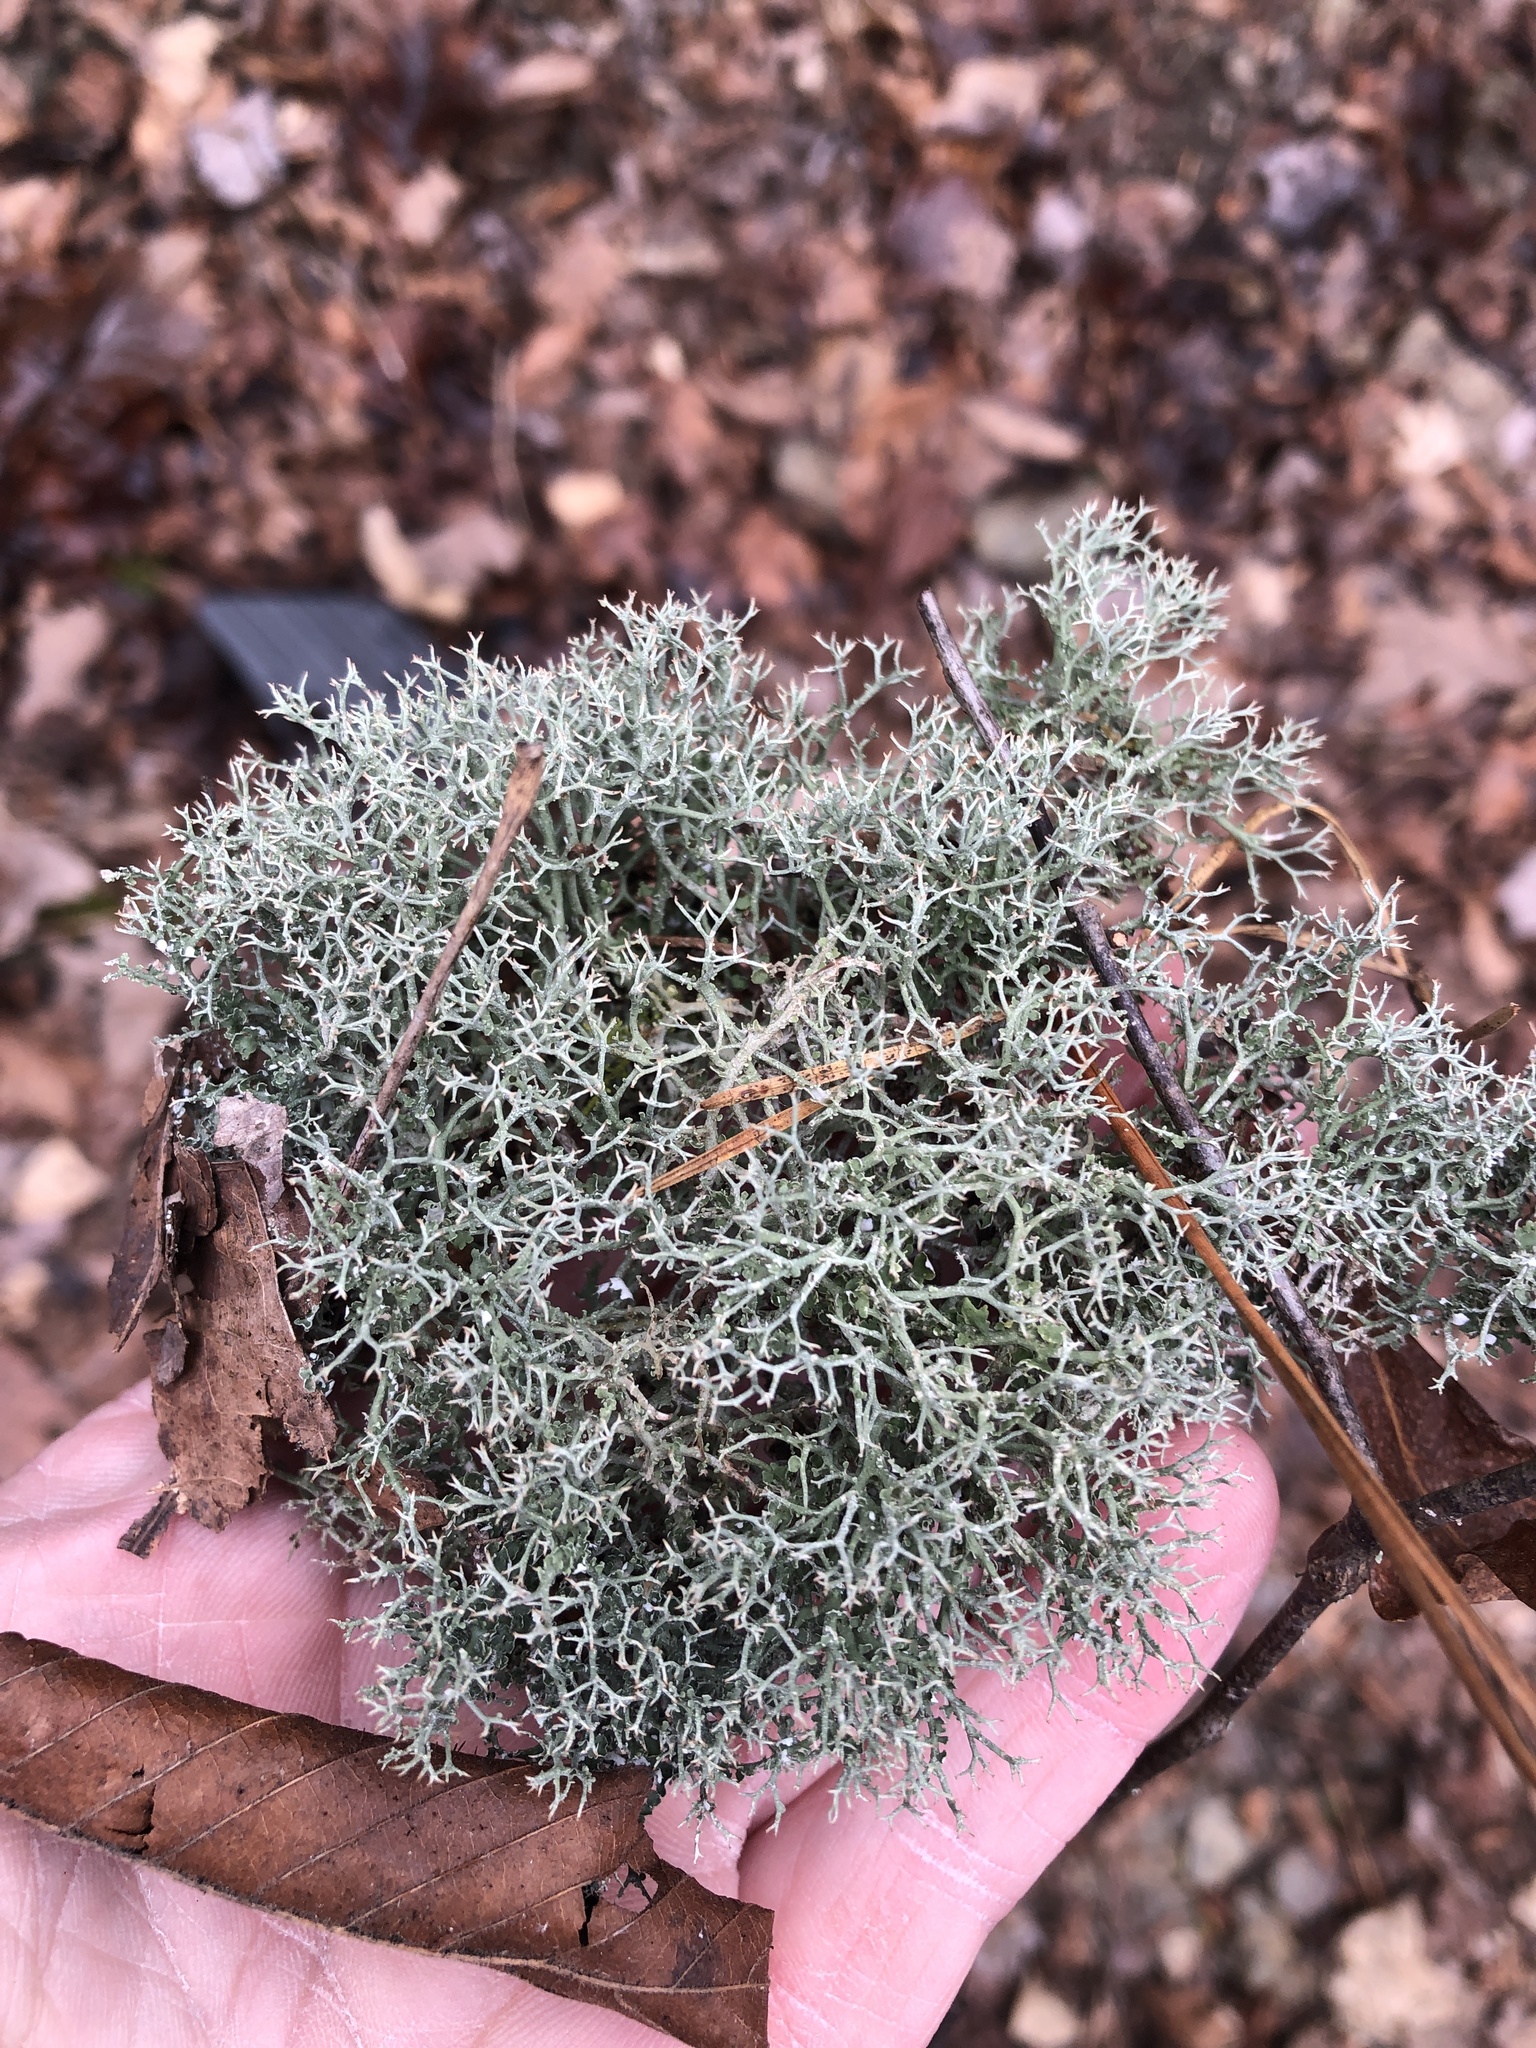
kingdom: Fungi
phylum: Ascomycota
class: Lecanoromycetes
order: Lecanorales
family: Cladoniaceae
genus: Cladonia
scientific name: Cladonia furcata
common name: Many-forked cladonia
